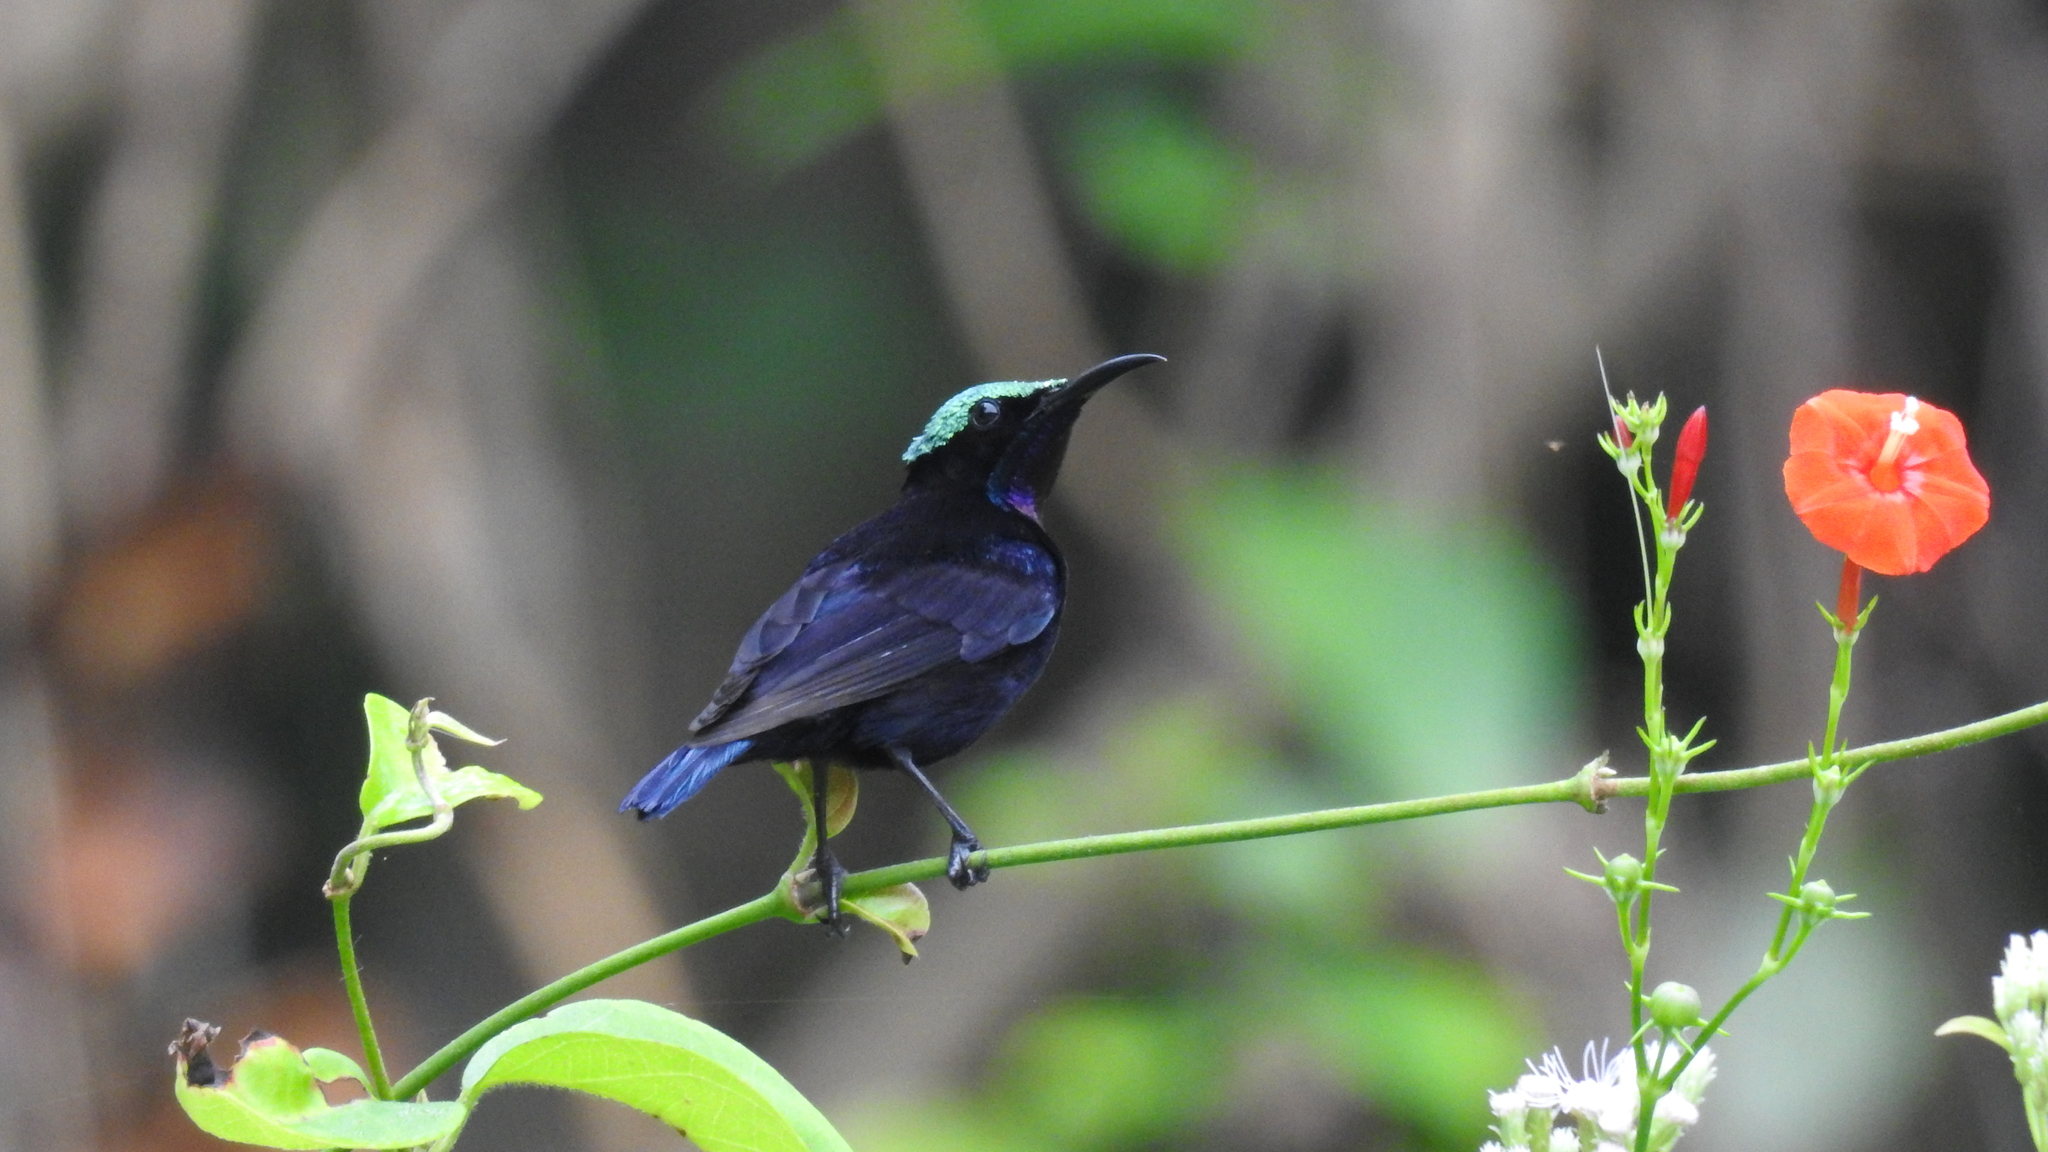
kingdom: Animalia
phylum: Chordata
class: Aves
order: Passeriformes
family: Nectariniidae
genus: Leptocoma
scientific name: Leptocoma sericea
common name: Black sunbird
